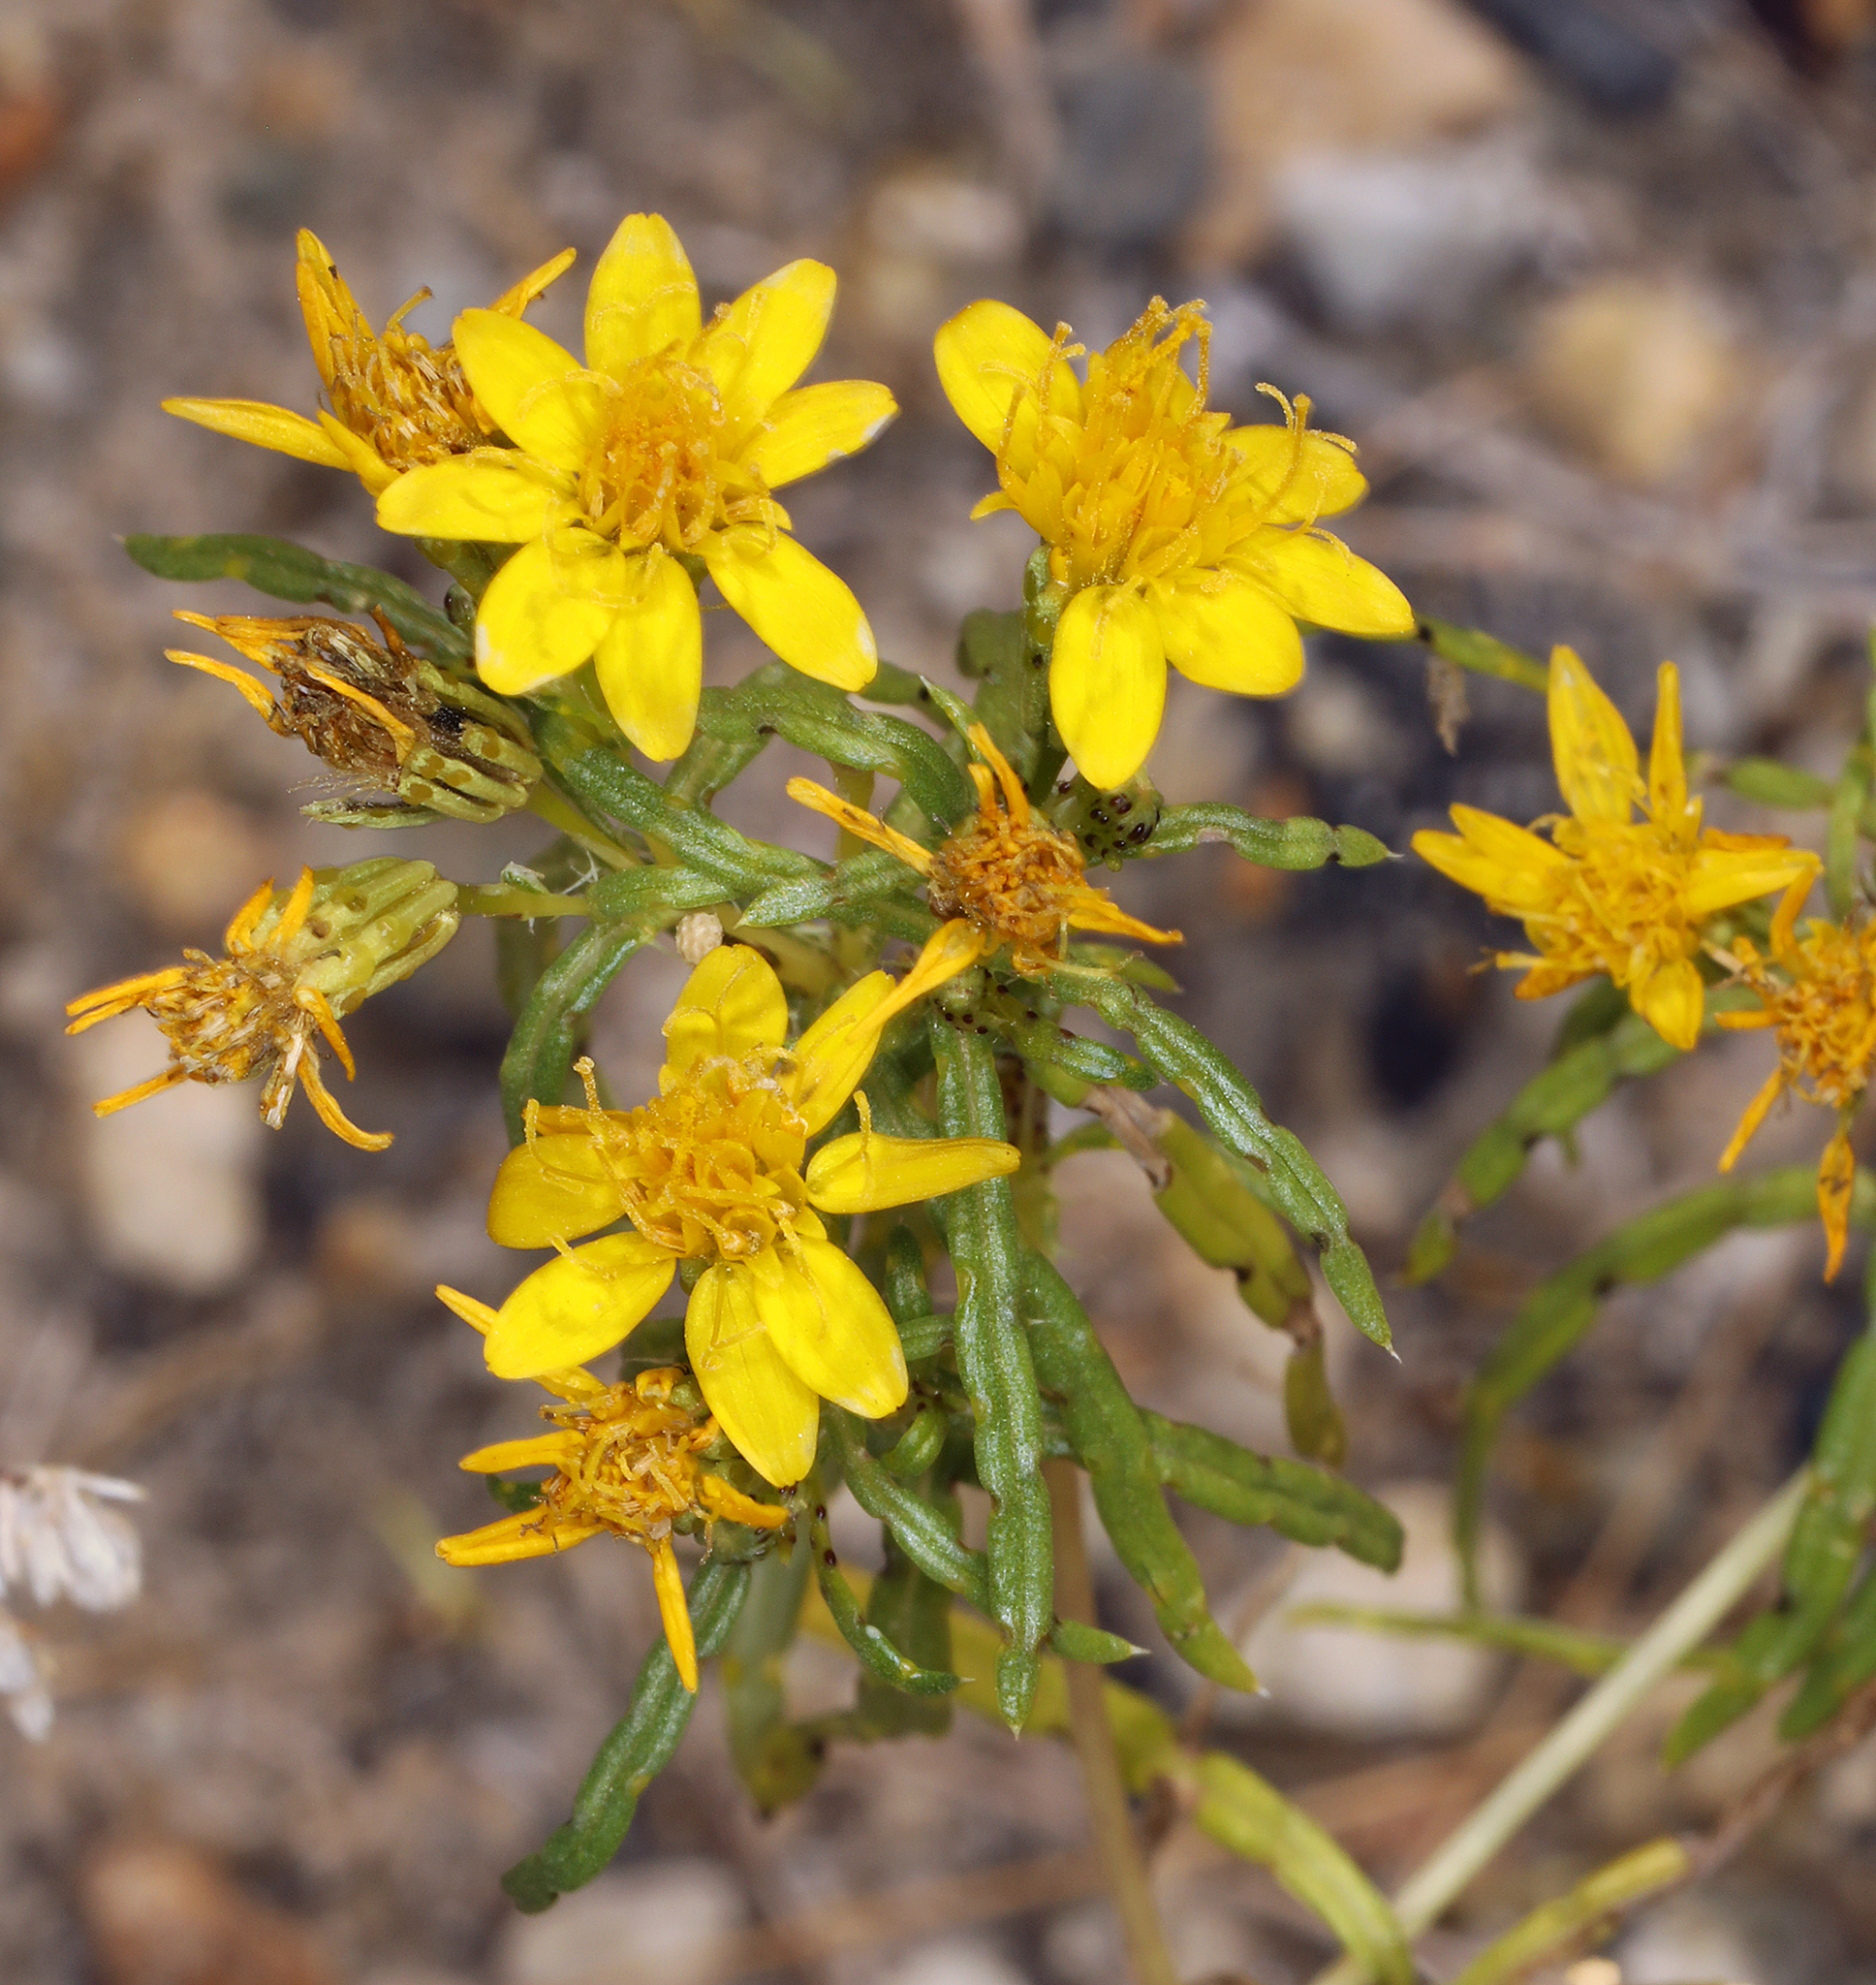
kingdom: Plantae
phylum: Tracheophyta
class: Magnoliopsida
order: Asterales
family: Asteraceae
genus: Pectis
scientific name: Pectis papposa
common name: Many-bristle chinchweed
